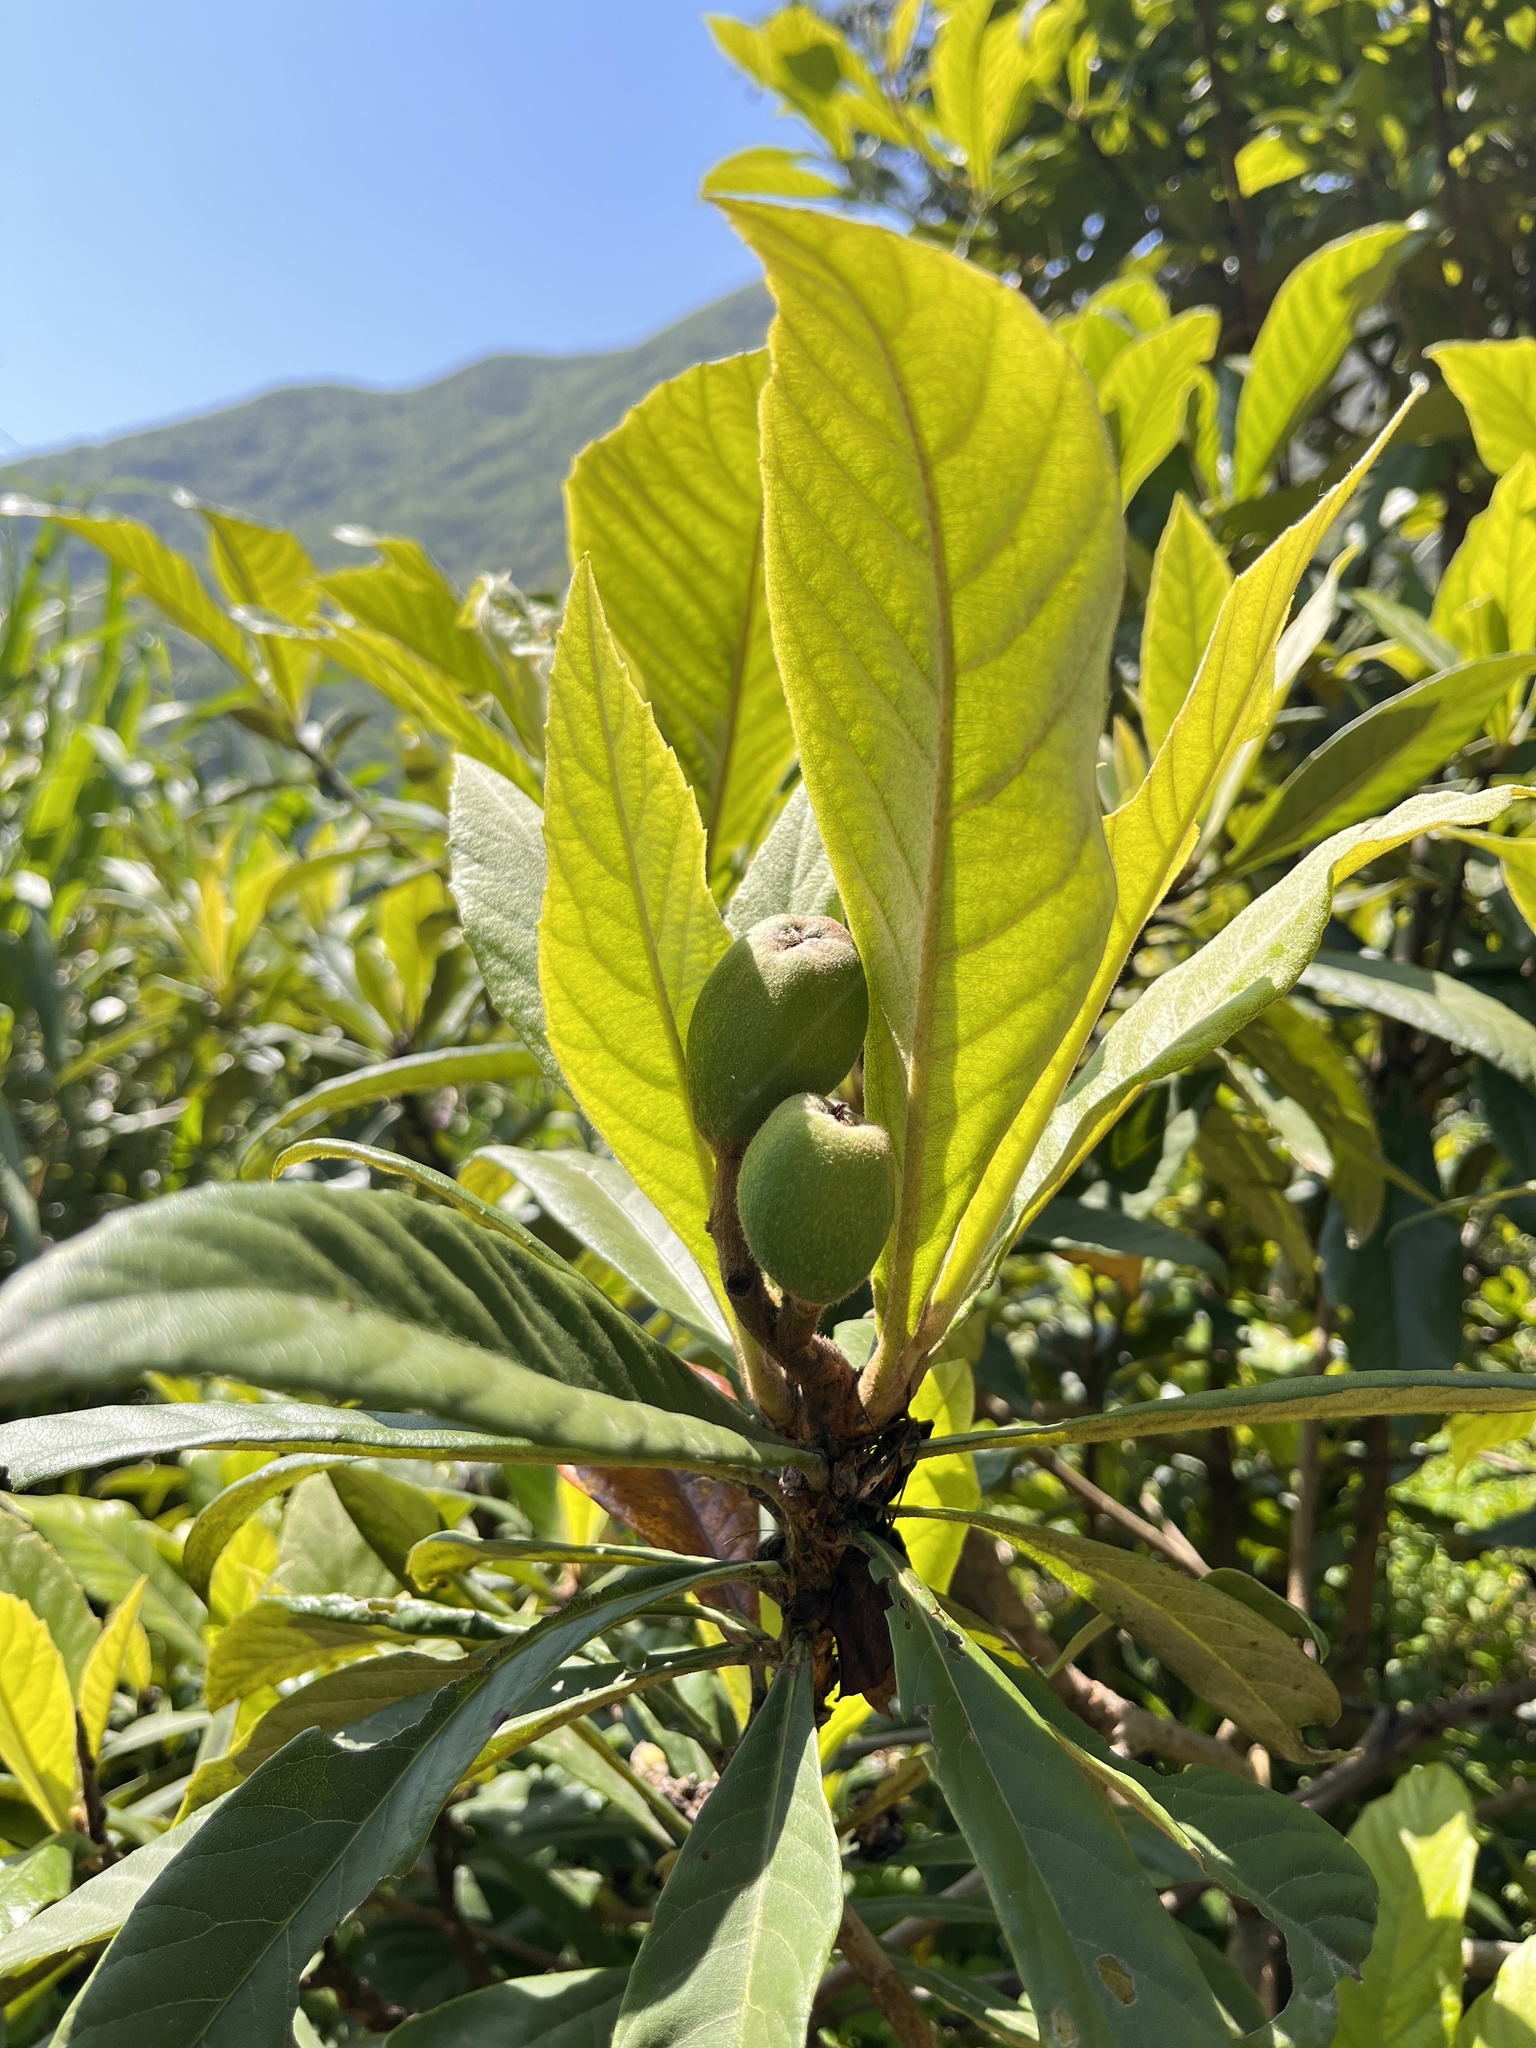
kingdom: Plantae
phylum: Tracheophyta
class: Magnoliopsida
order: Rosales
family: Rosaceae
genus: Rhaphiolepis
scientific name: Rhaphiolepis bibas
